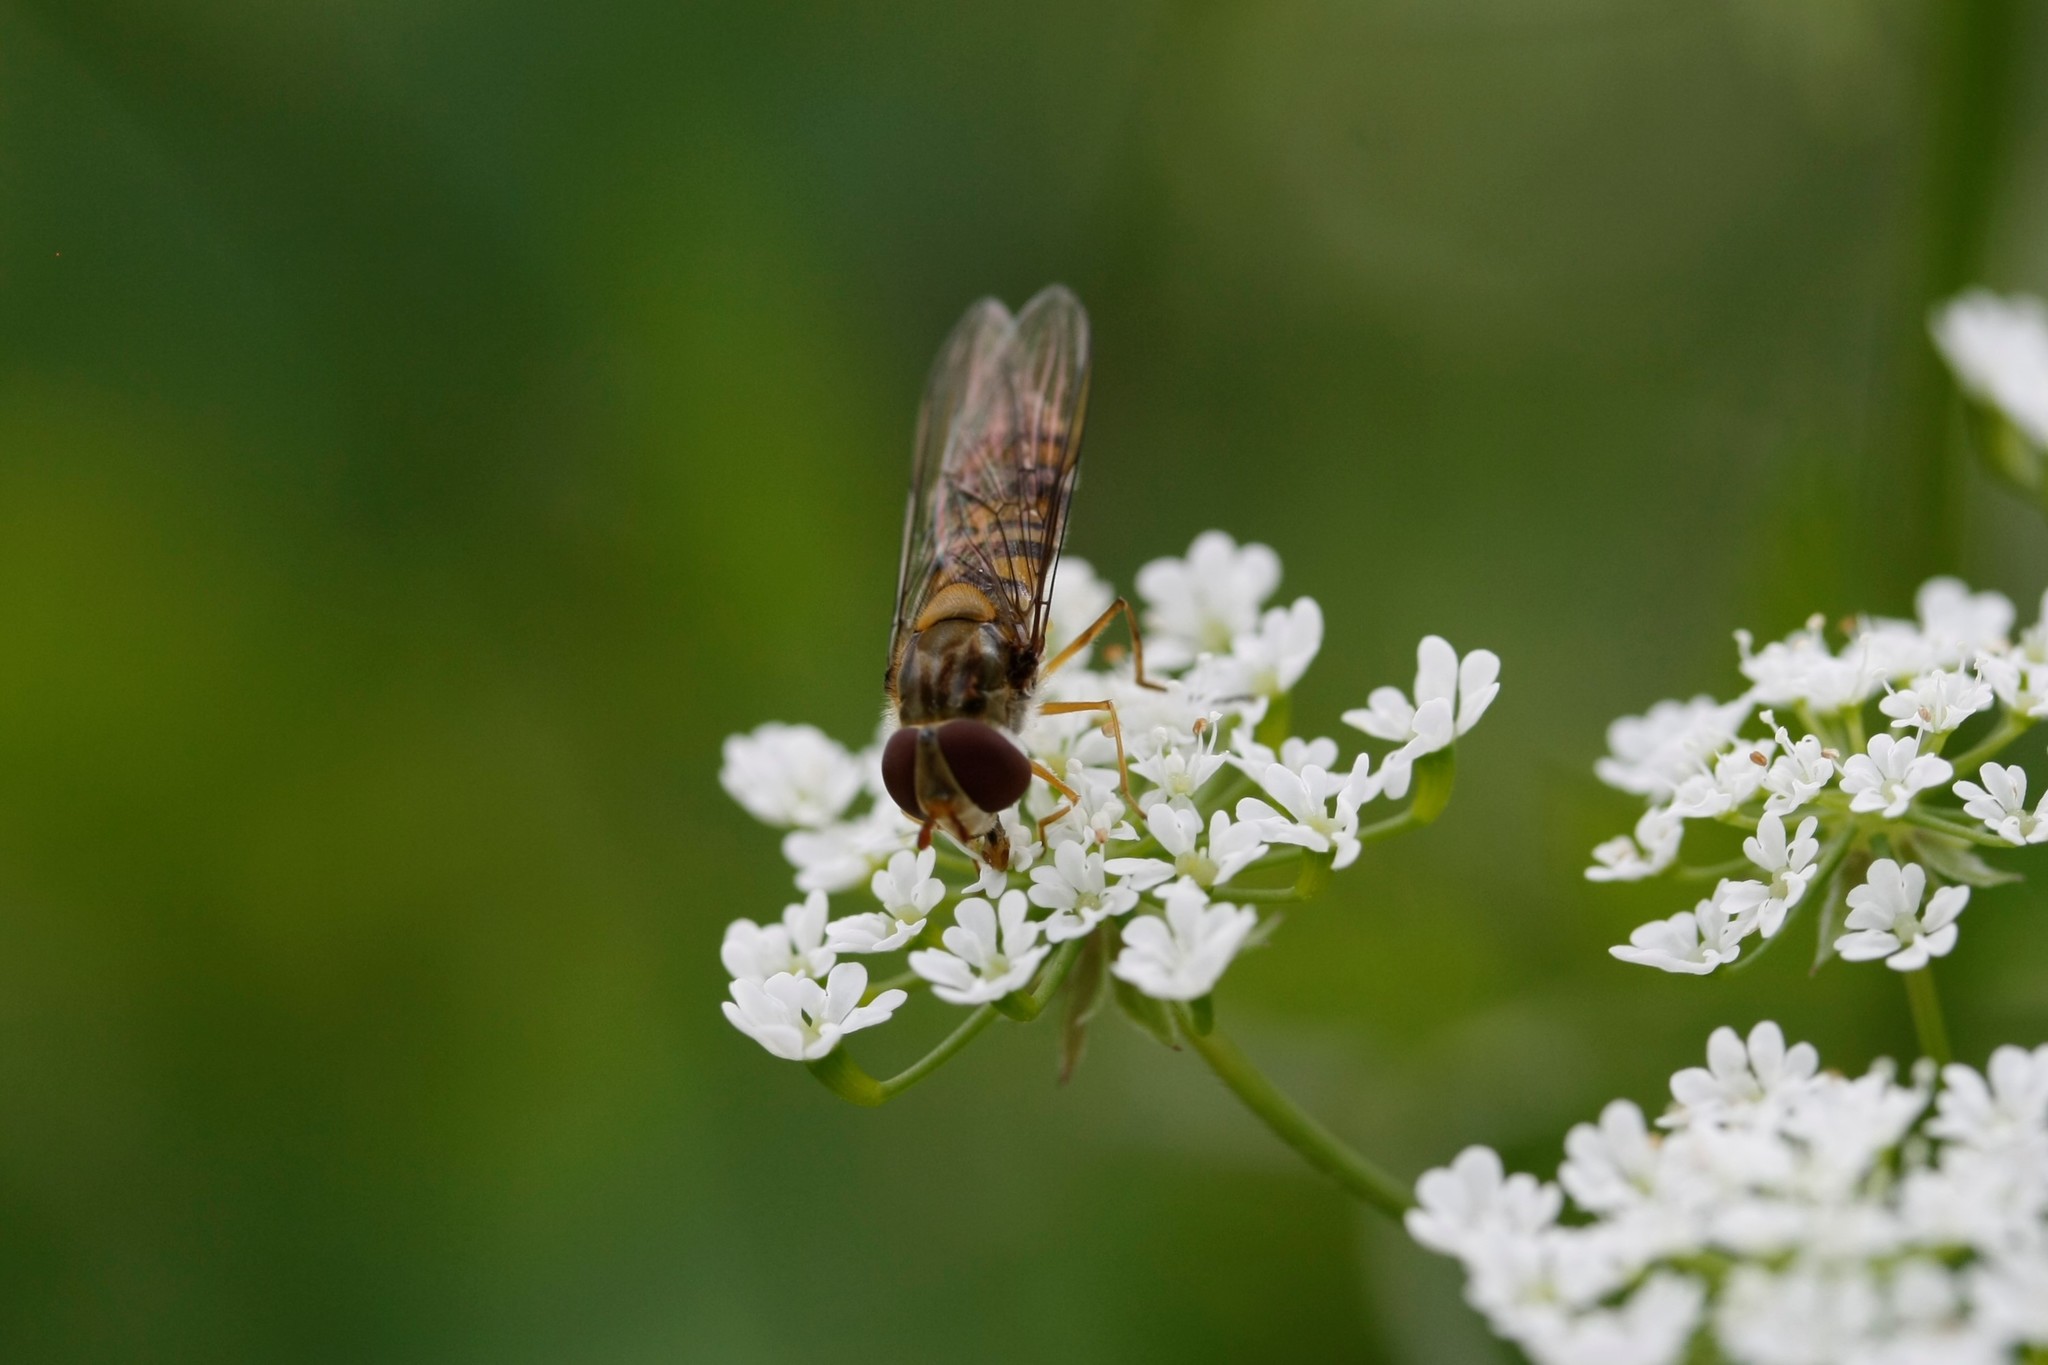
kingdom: Animalia
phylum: Arthropoda
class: Insecta
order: Diptera
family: Syrphidae
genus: Episyrphus
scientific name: Episyrphus balteatus
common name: Marmalade hoverfly
